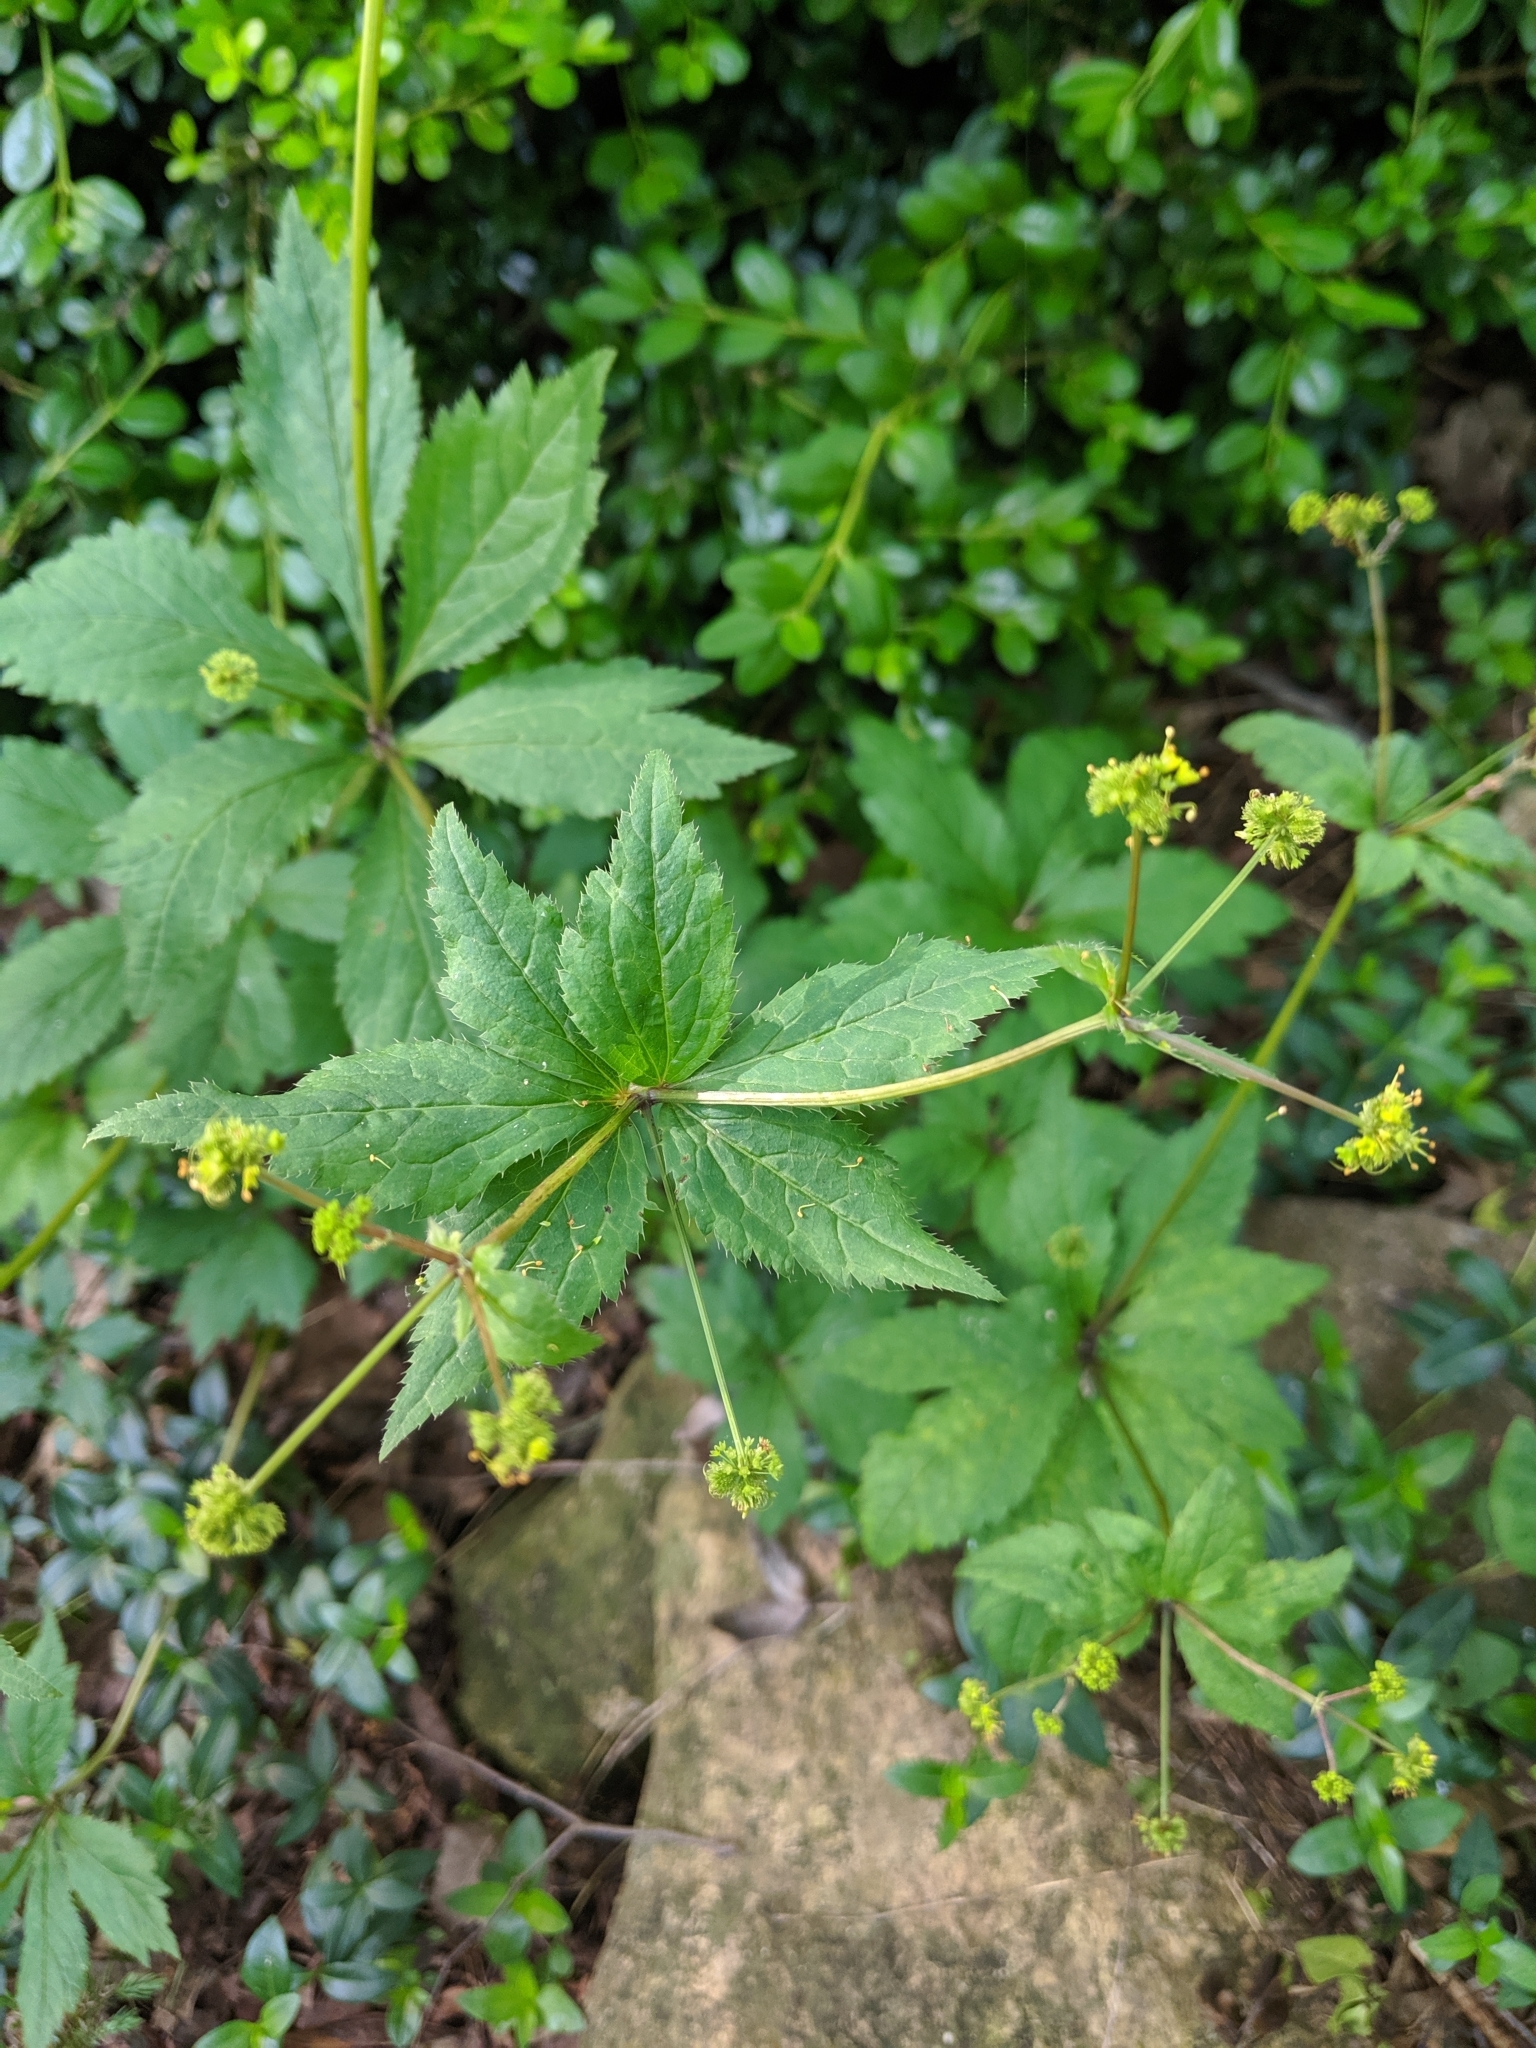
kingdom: Plantae
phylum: Tracheophyta
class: Magnoliopsida
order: Apiales
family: Apiaceae
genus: Sanicula
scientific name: Sanicula odorata
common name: Cluster sanicle
